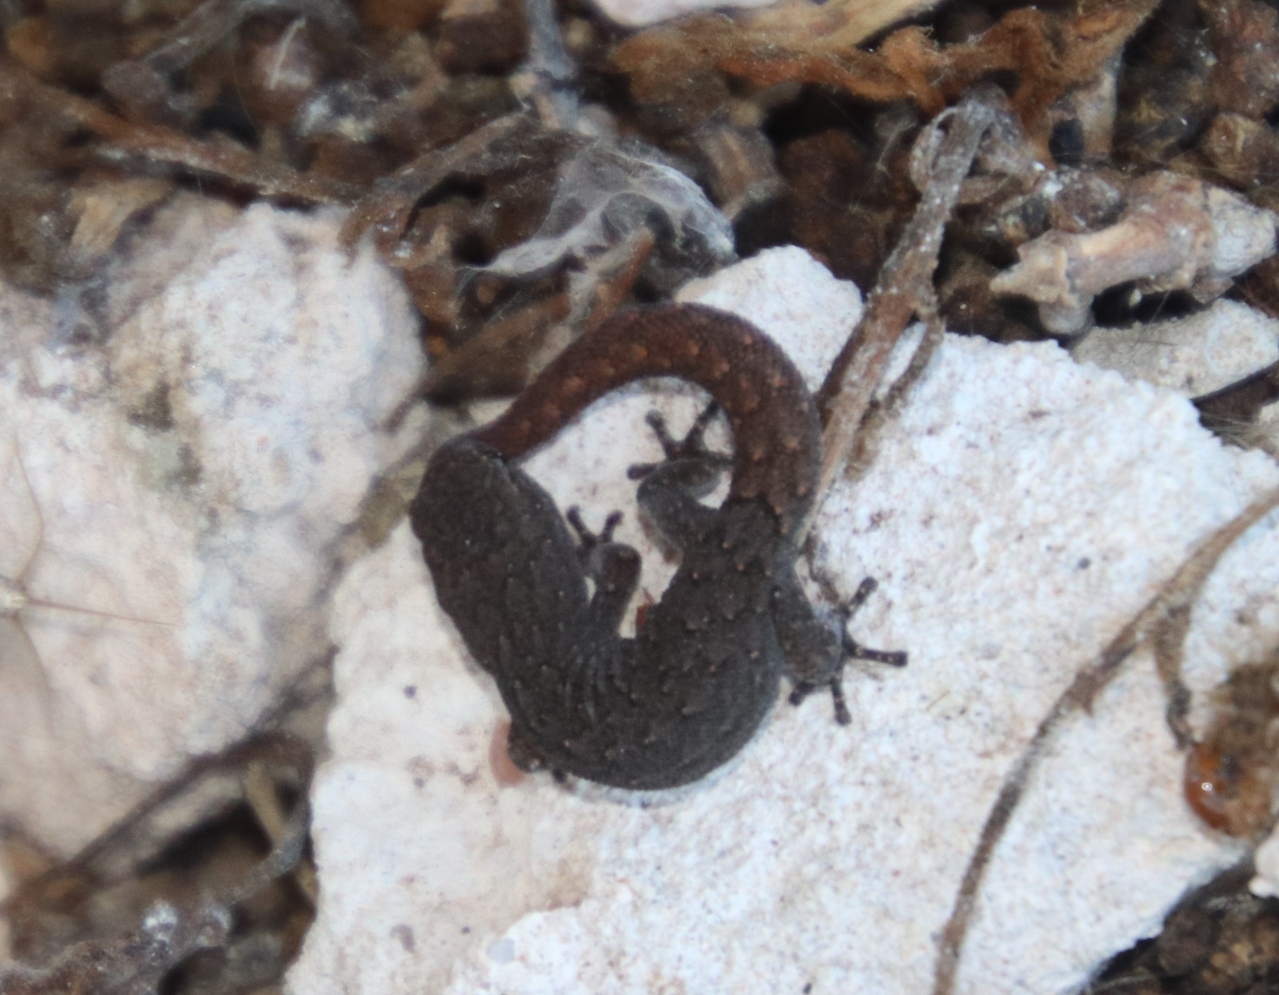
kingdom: Animalia
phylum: Chordata
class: Squamata
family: Gekkonidae
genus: Goggia
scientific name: Goggia incognita
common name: Cryptic pygmy gecko
